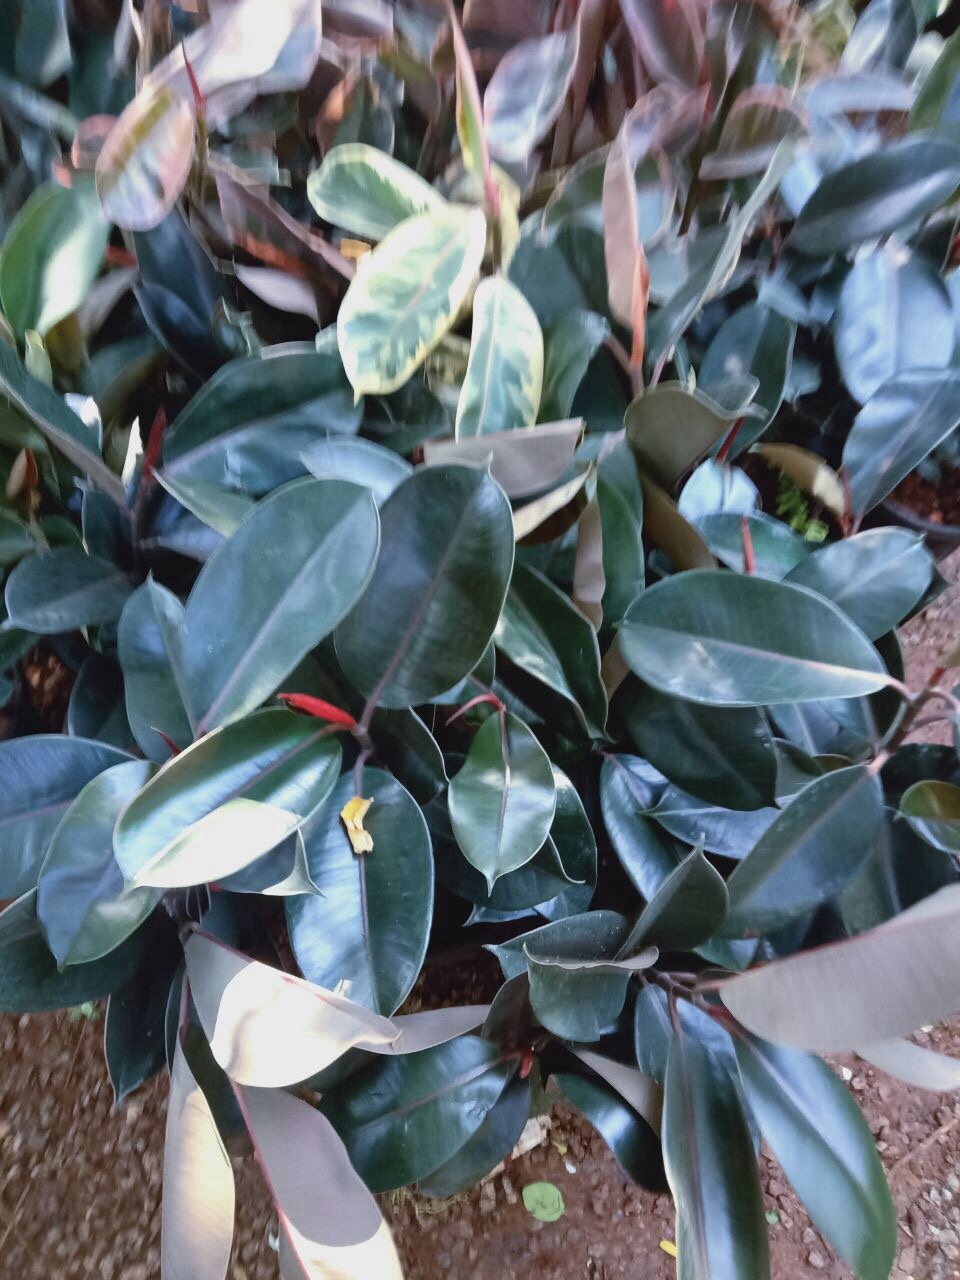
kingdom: Plantae
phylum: Tracheophyta
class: Magnoliopsida
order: Rosales
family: Moraceae
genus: Ficus
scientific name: Ficus elastica
